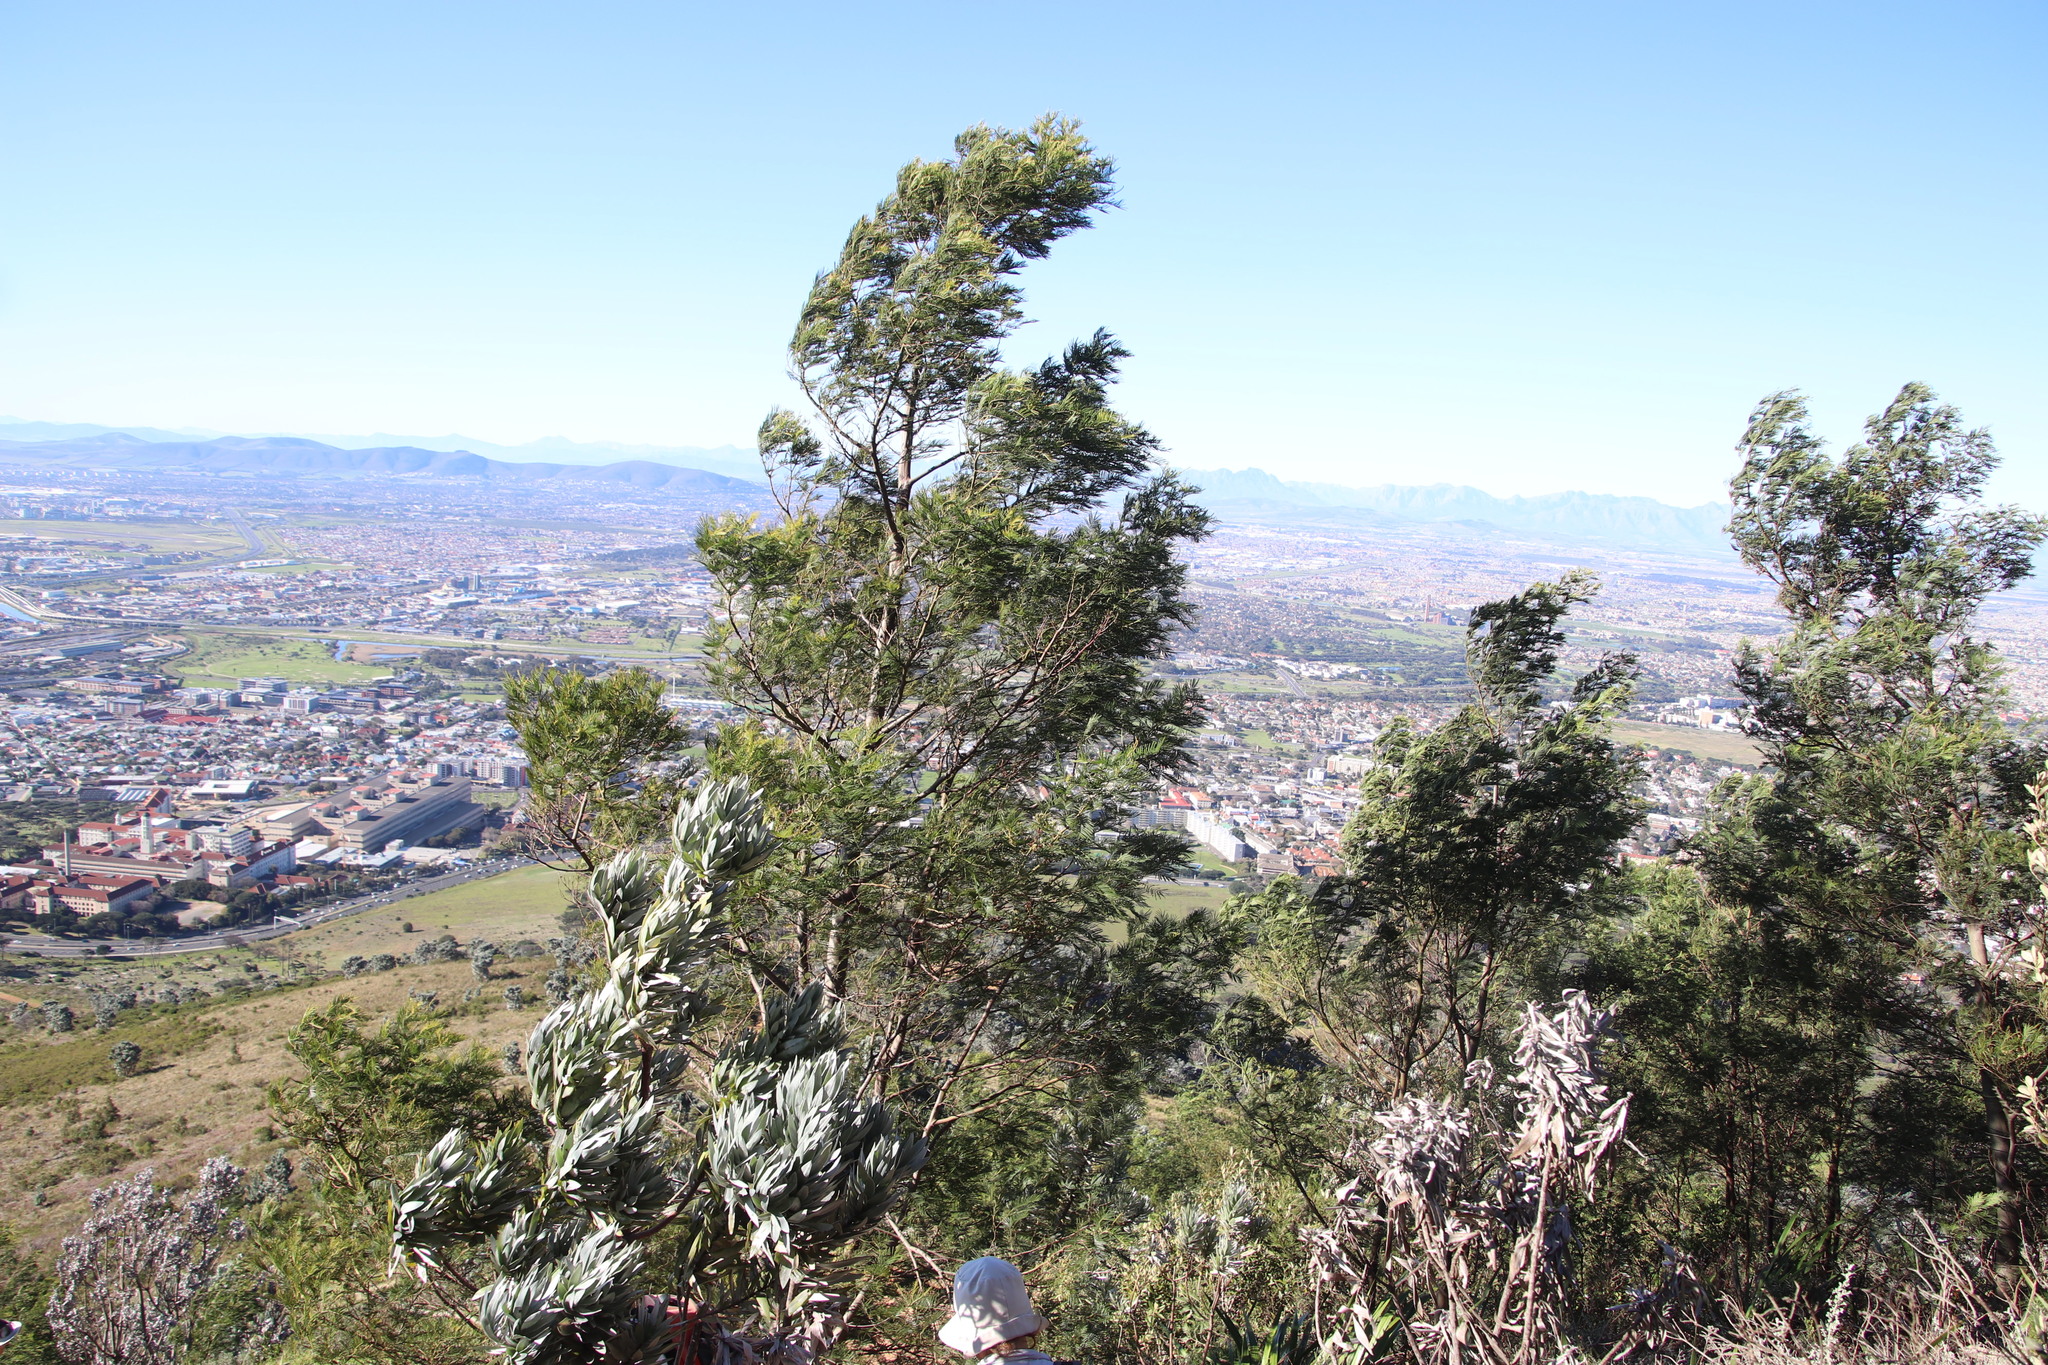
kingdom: Plantae
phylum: Tracheophyta
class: Magnoliopsida
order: Fabales
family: Fabaceae
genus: Acacia
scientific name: Acacia mearnsii
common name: Black wattle
